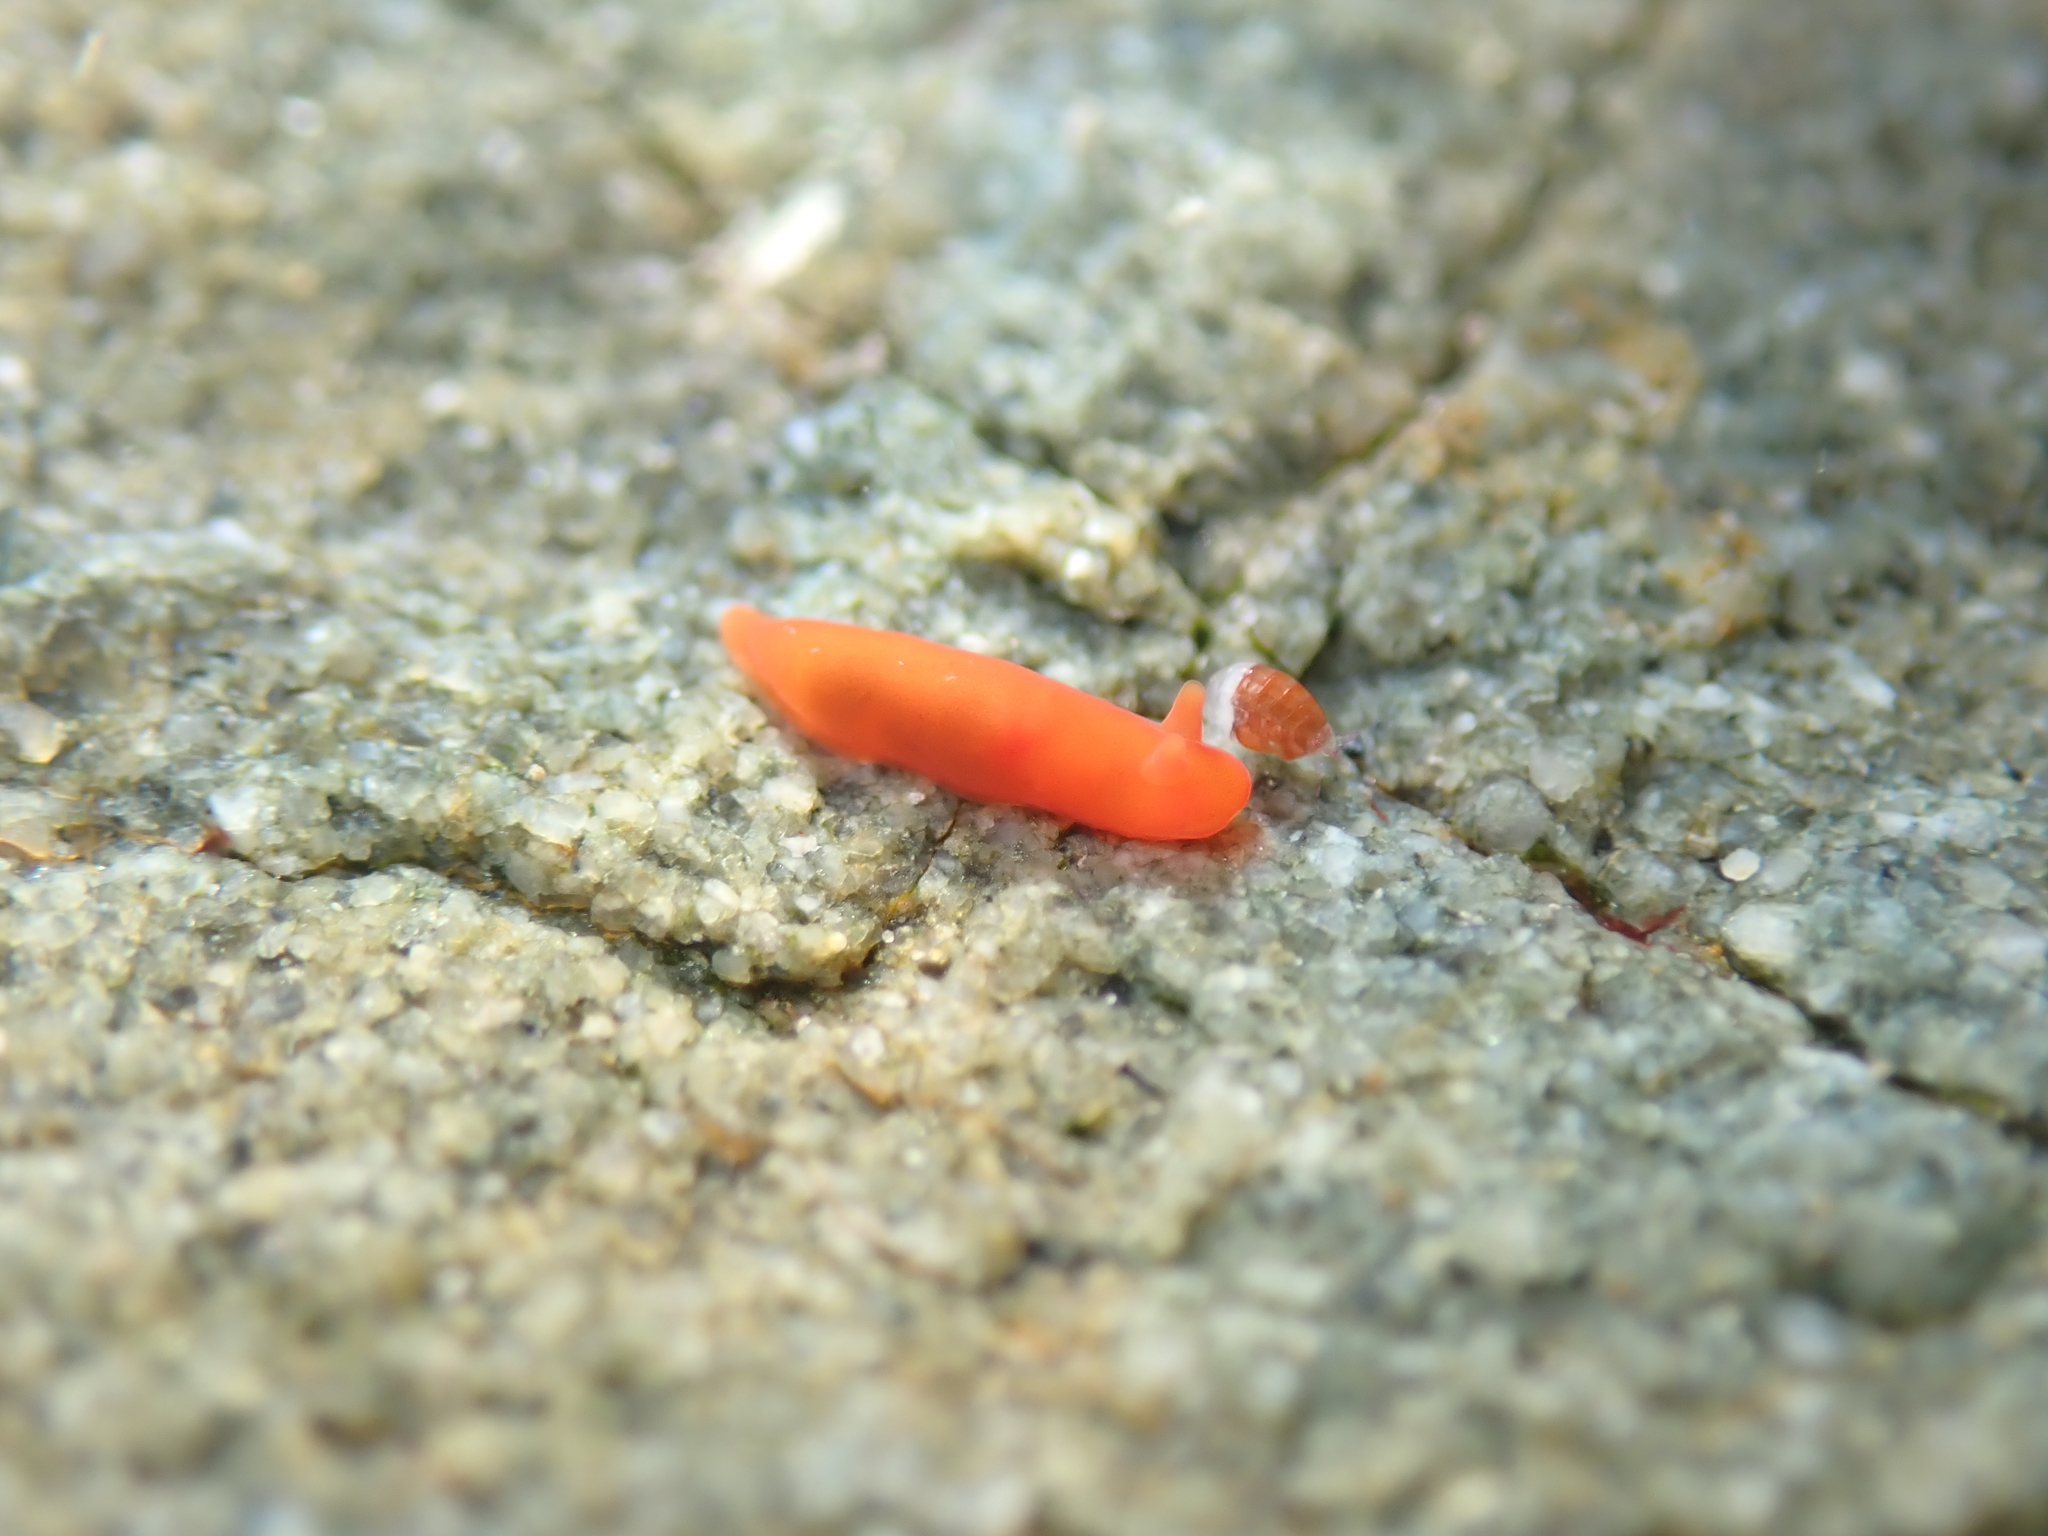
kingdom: Animalia
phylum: Mollusca
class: Gastropoda
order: Nudibranchia
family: Okadaiidae
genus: Vayssierea
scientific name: Vayssierea cinnabarea
